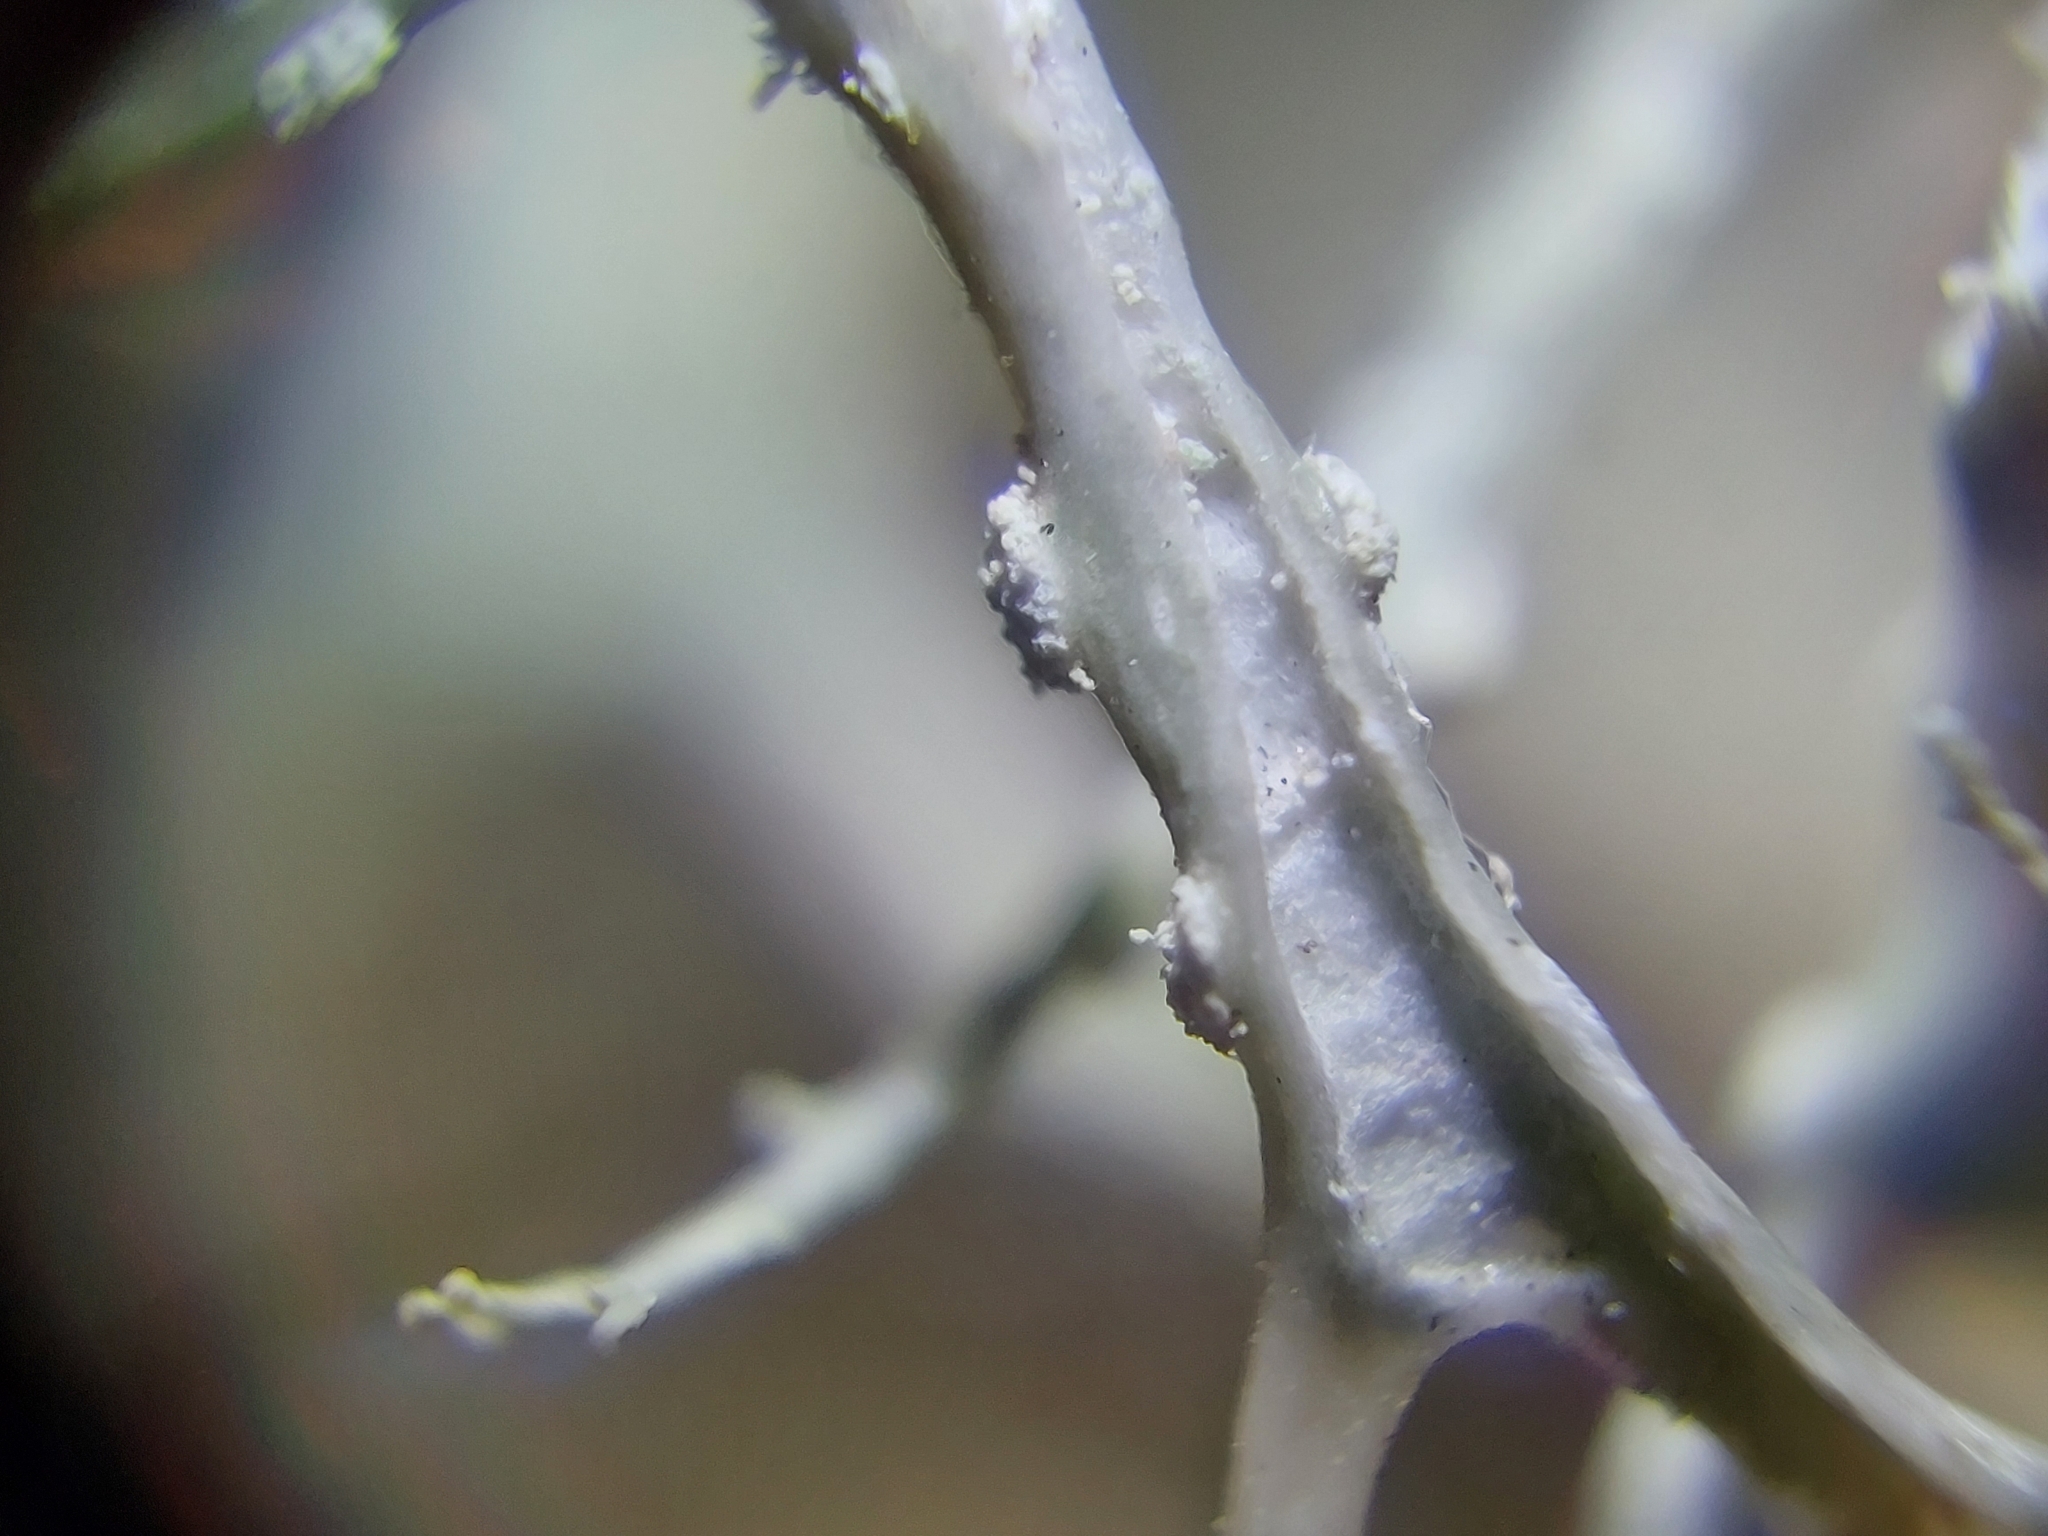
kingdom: Fungi
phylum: Ascomycota
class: Lecanoromycetes
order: Lecanorales
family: Ramalinaceae
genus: Ramalina
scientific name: Ramalina farinacea
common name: Farinose cartilage lichen
